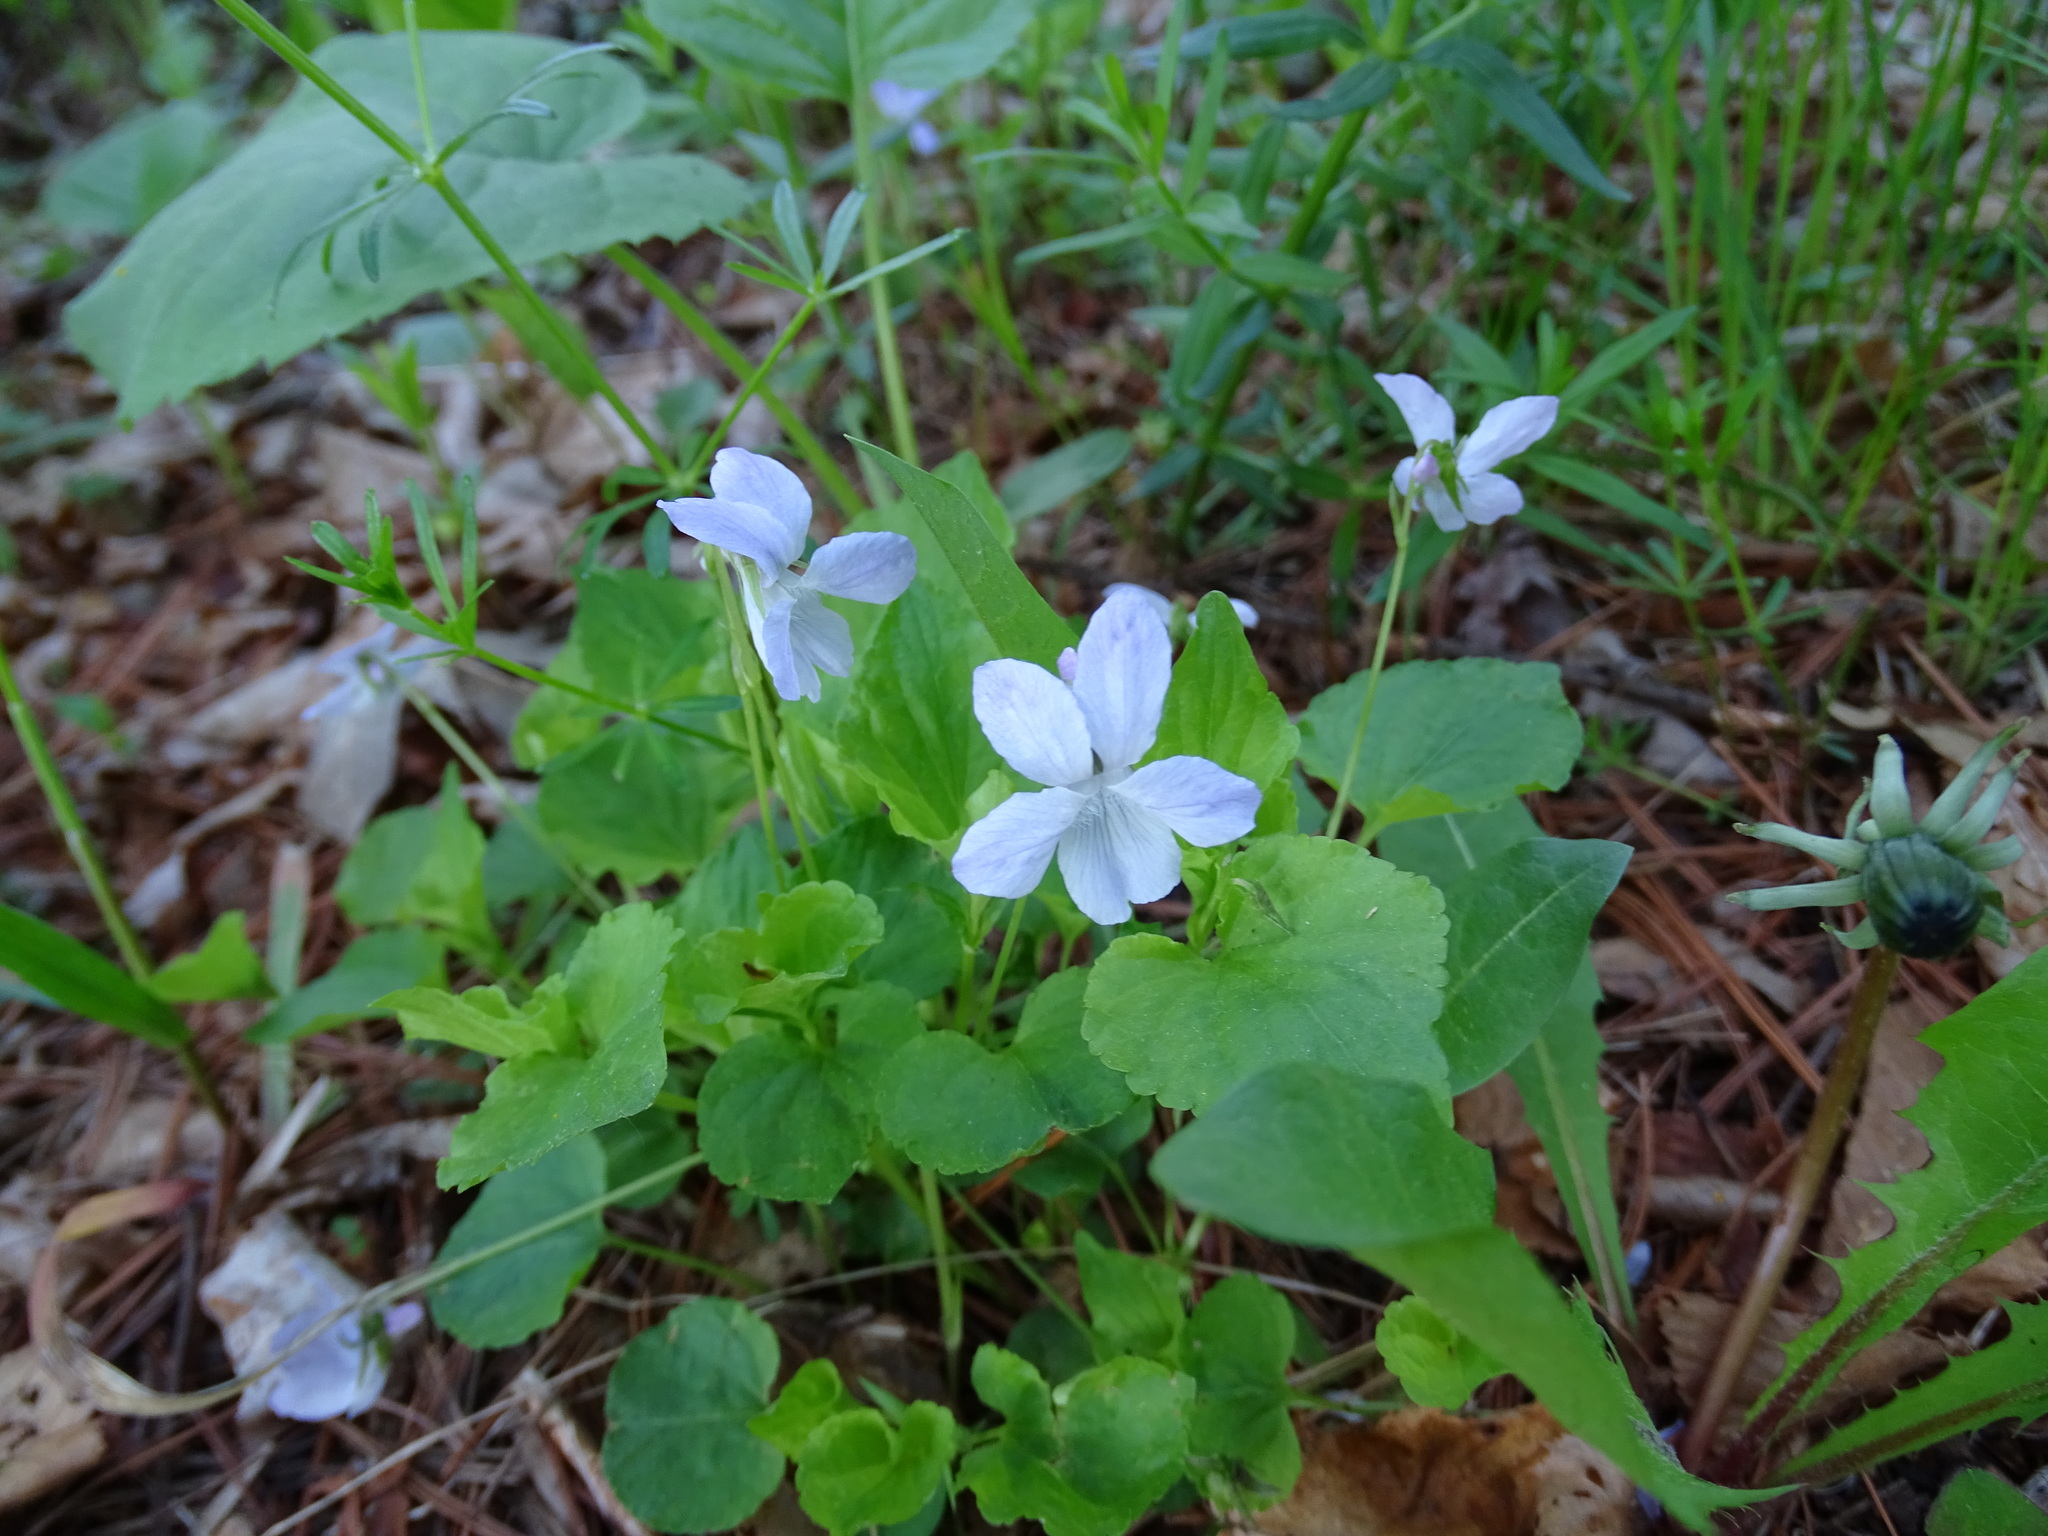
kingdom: Plantae
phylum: Tracheophyta
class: Magnoliopsida
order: Malpighiales
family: Violaceae
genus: Viola
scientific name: Viola labradorica
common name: Labrador violet
